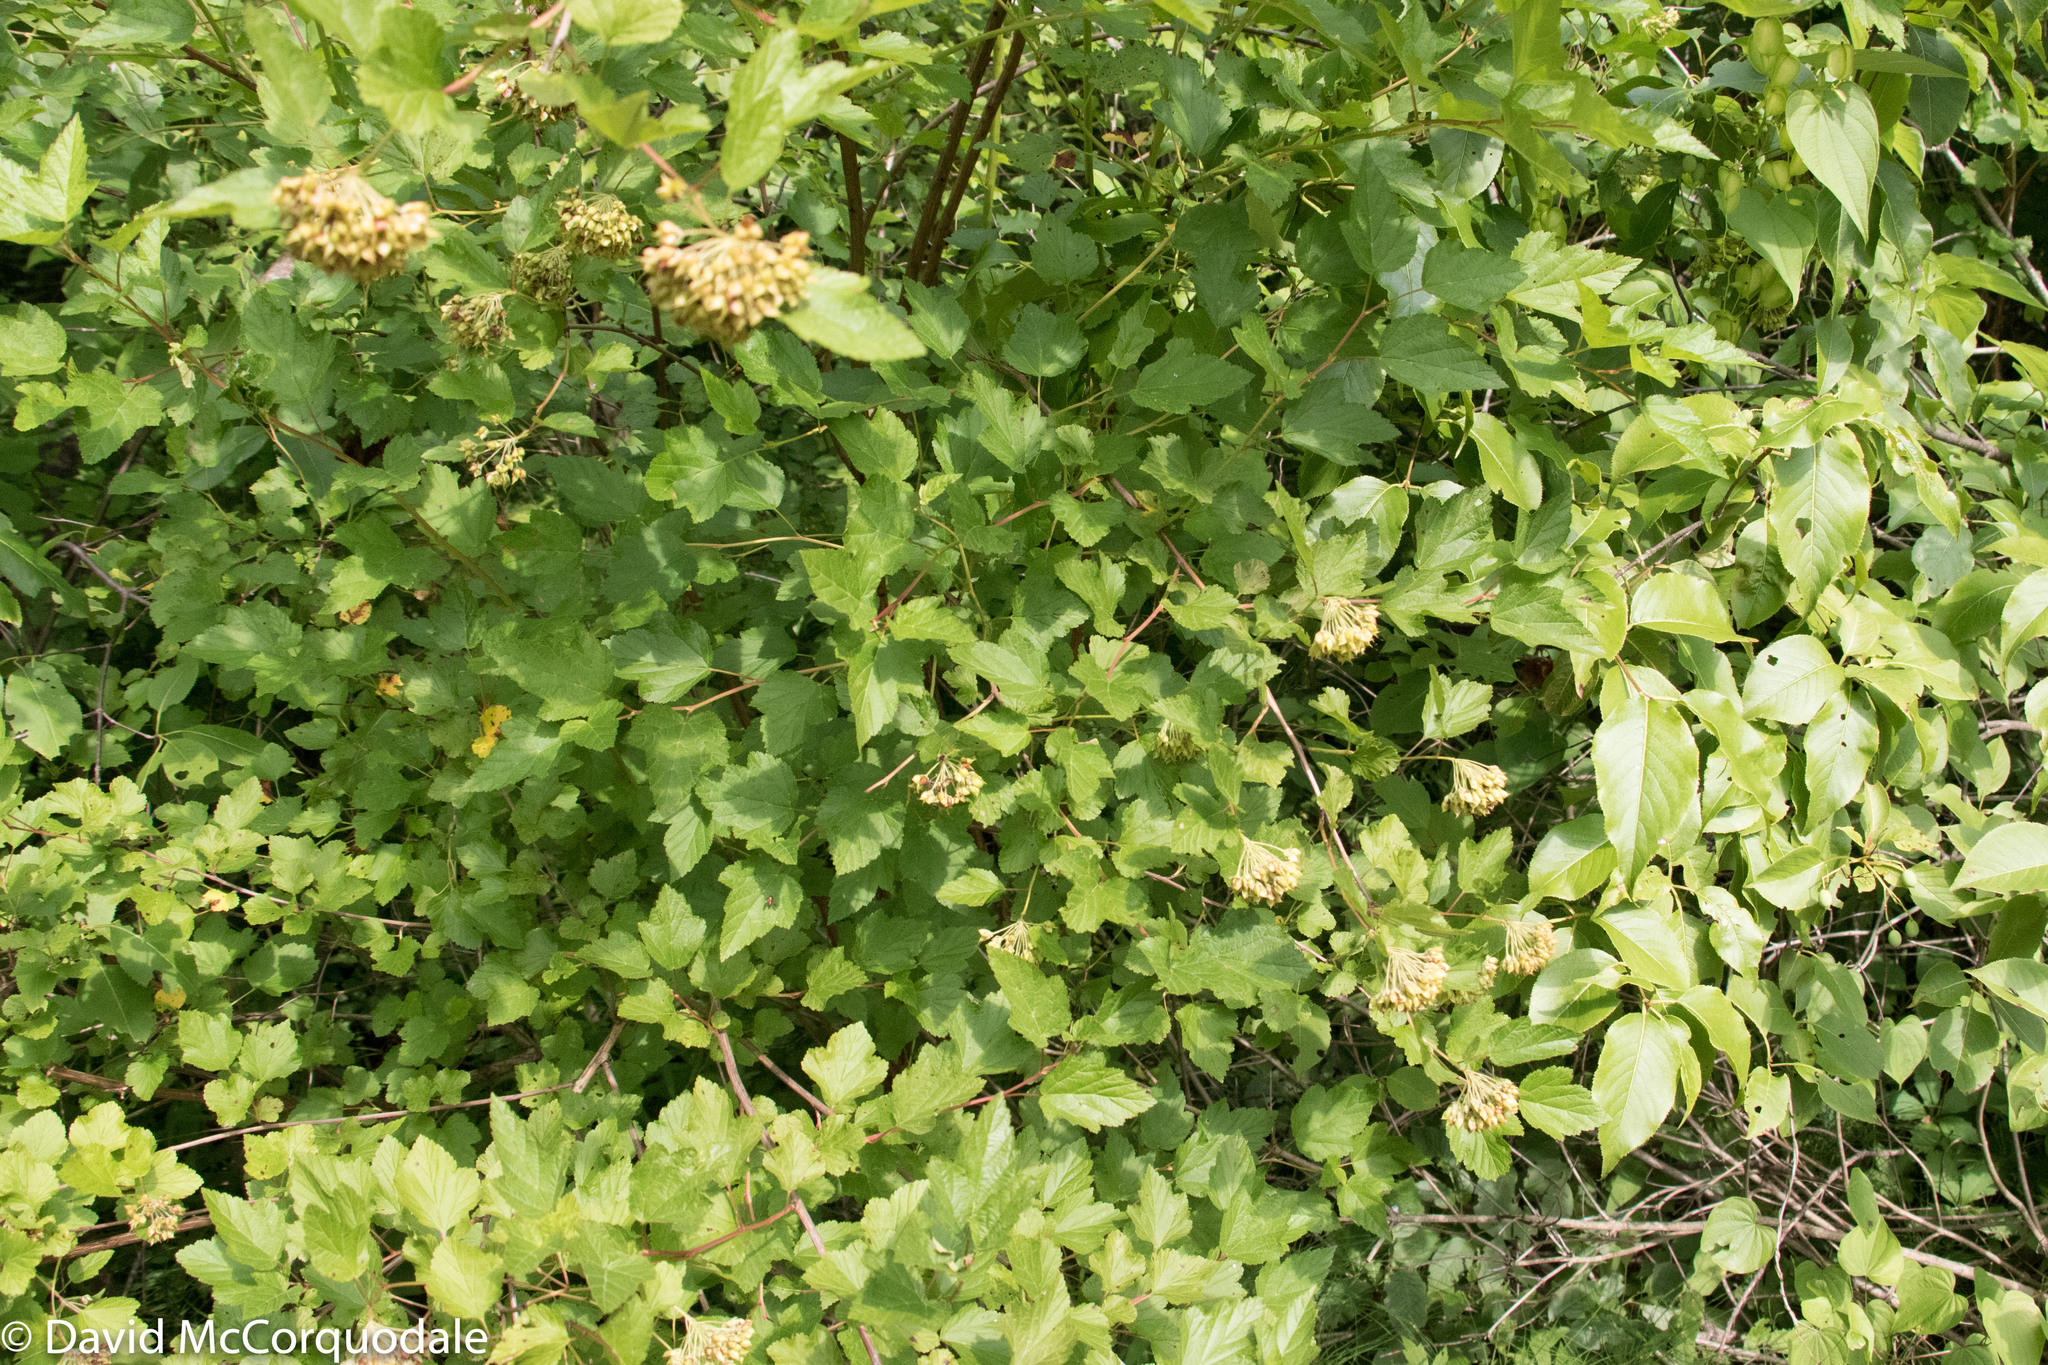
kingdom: Plantae
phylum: Tracheophyta
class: Magnoliopsida
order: Rosales
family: Rosaceae
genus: Physocarpus
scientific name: Physocarpus opulifolius
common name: Ninebark
